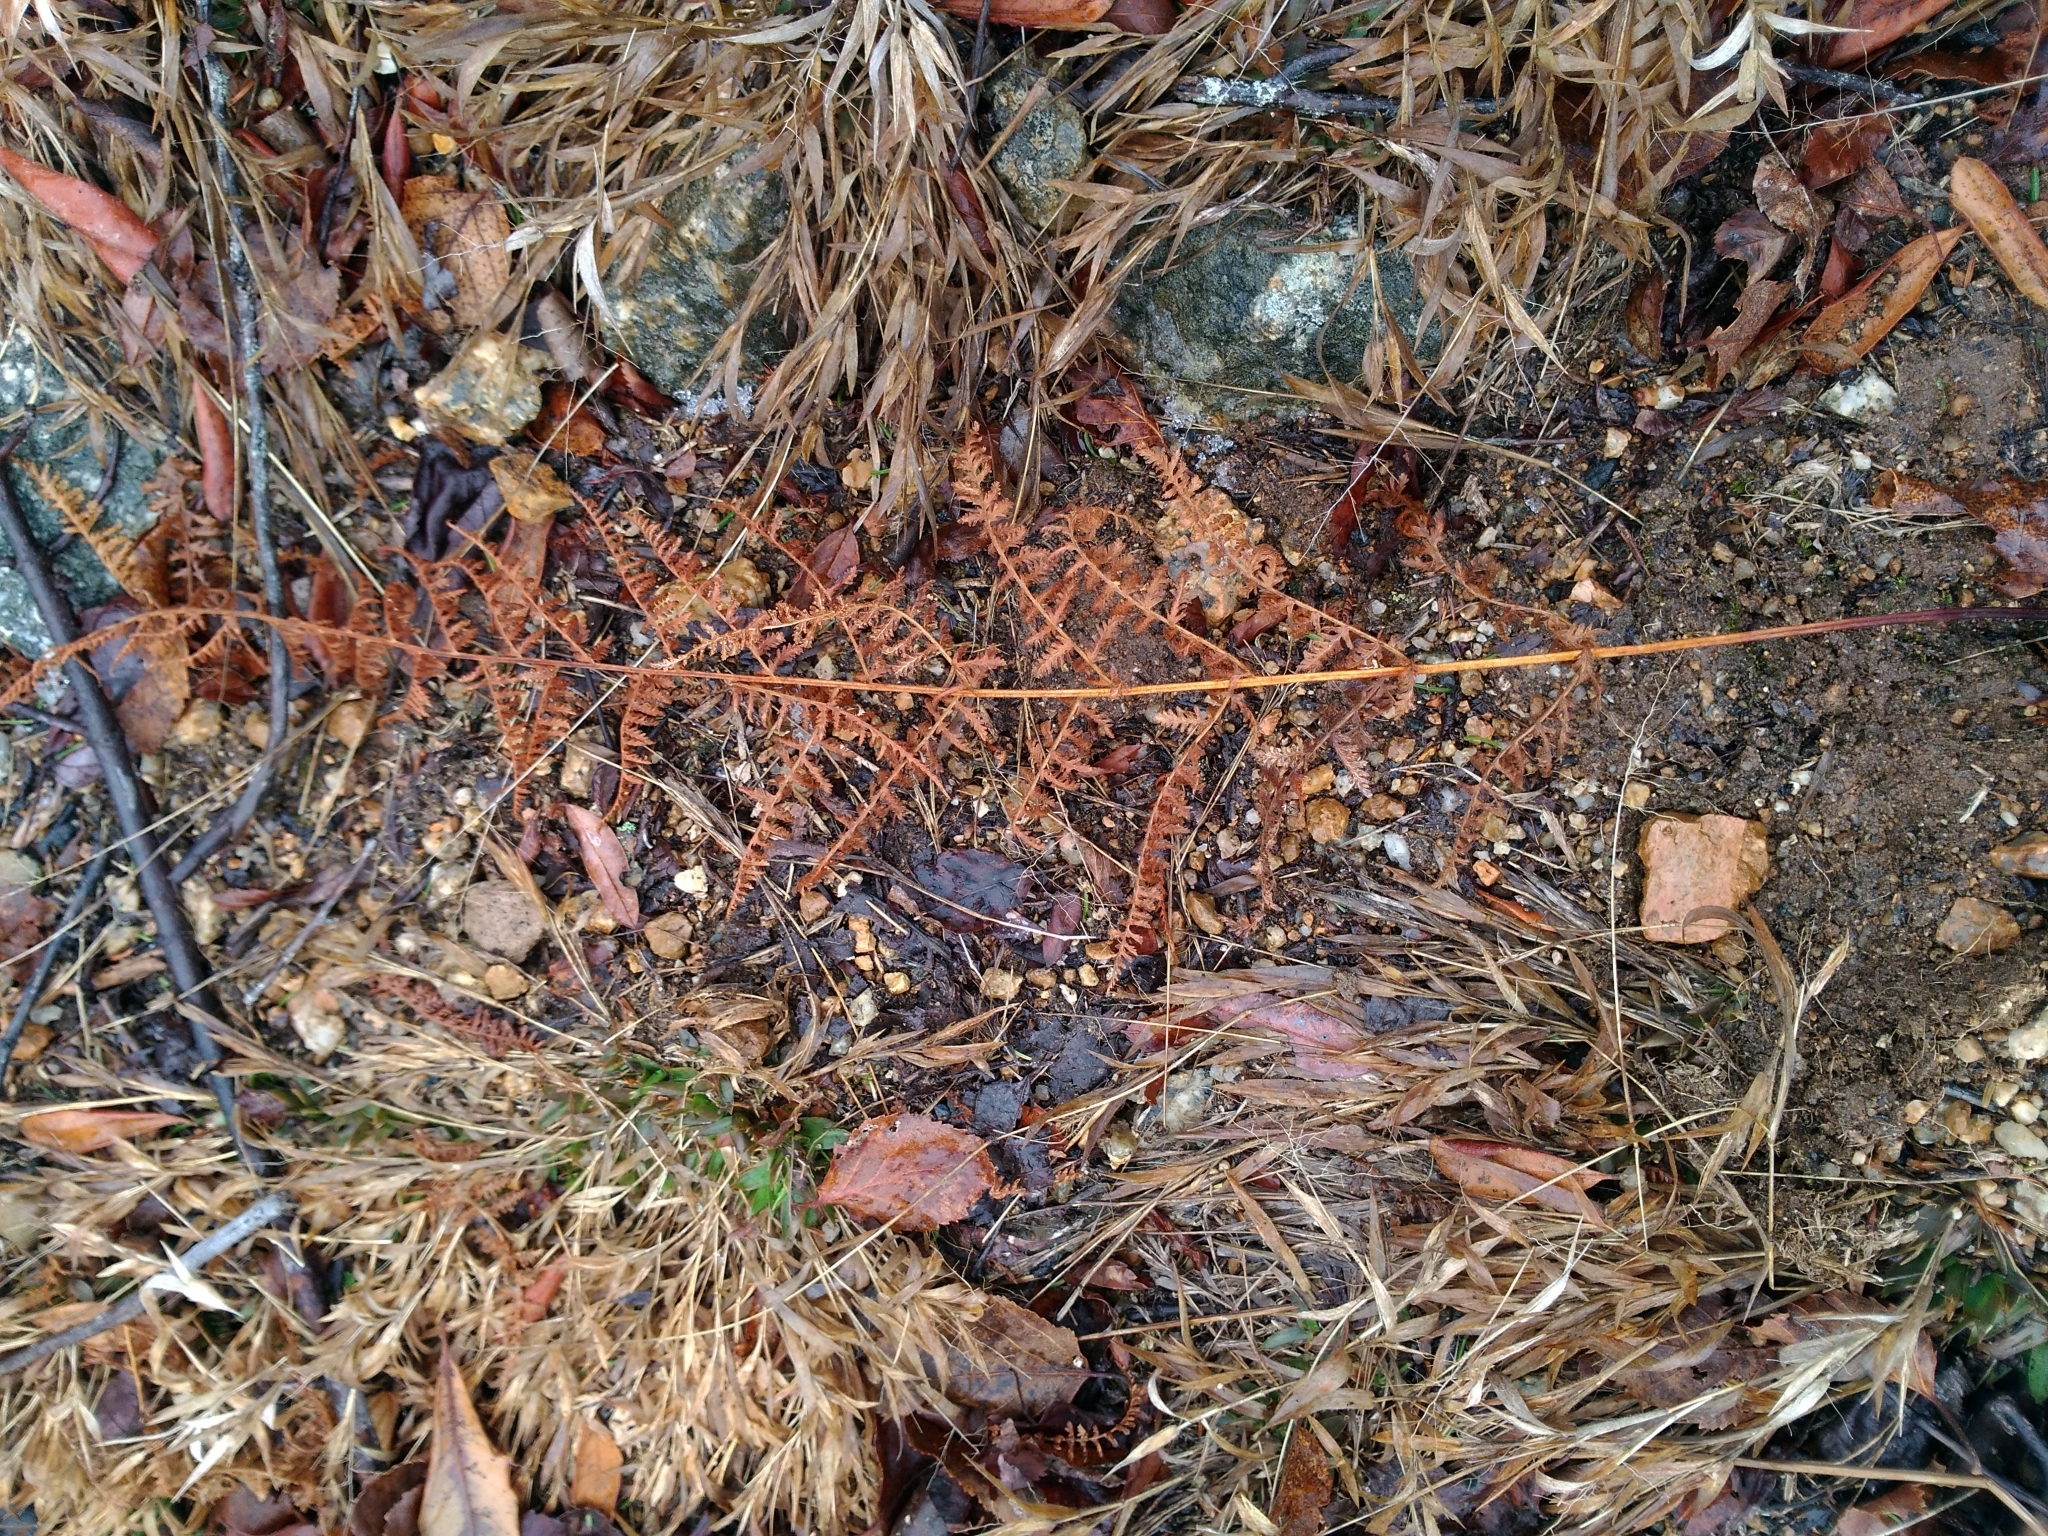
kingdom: Plantae
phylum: Tracheophyta
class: Polypodiopsida
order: Polypodiales
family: Dennstaedtiaceae
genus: Sitobolium
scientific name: Sitobolium punctilobum
